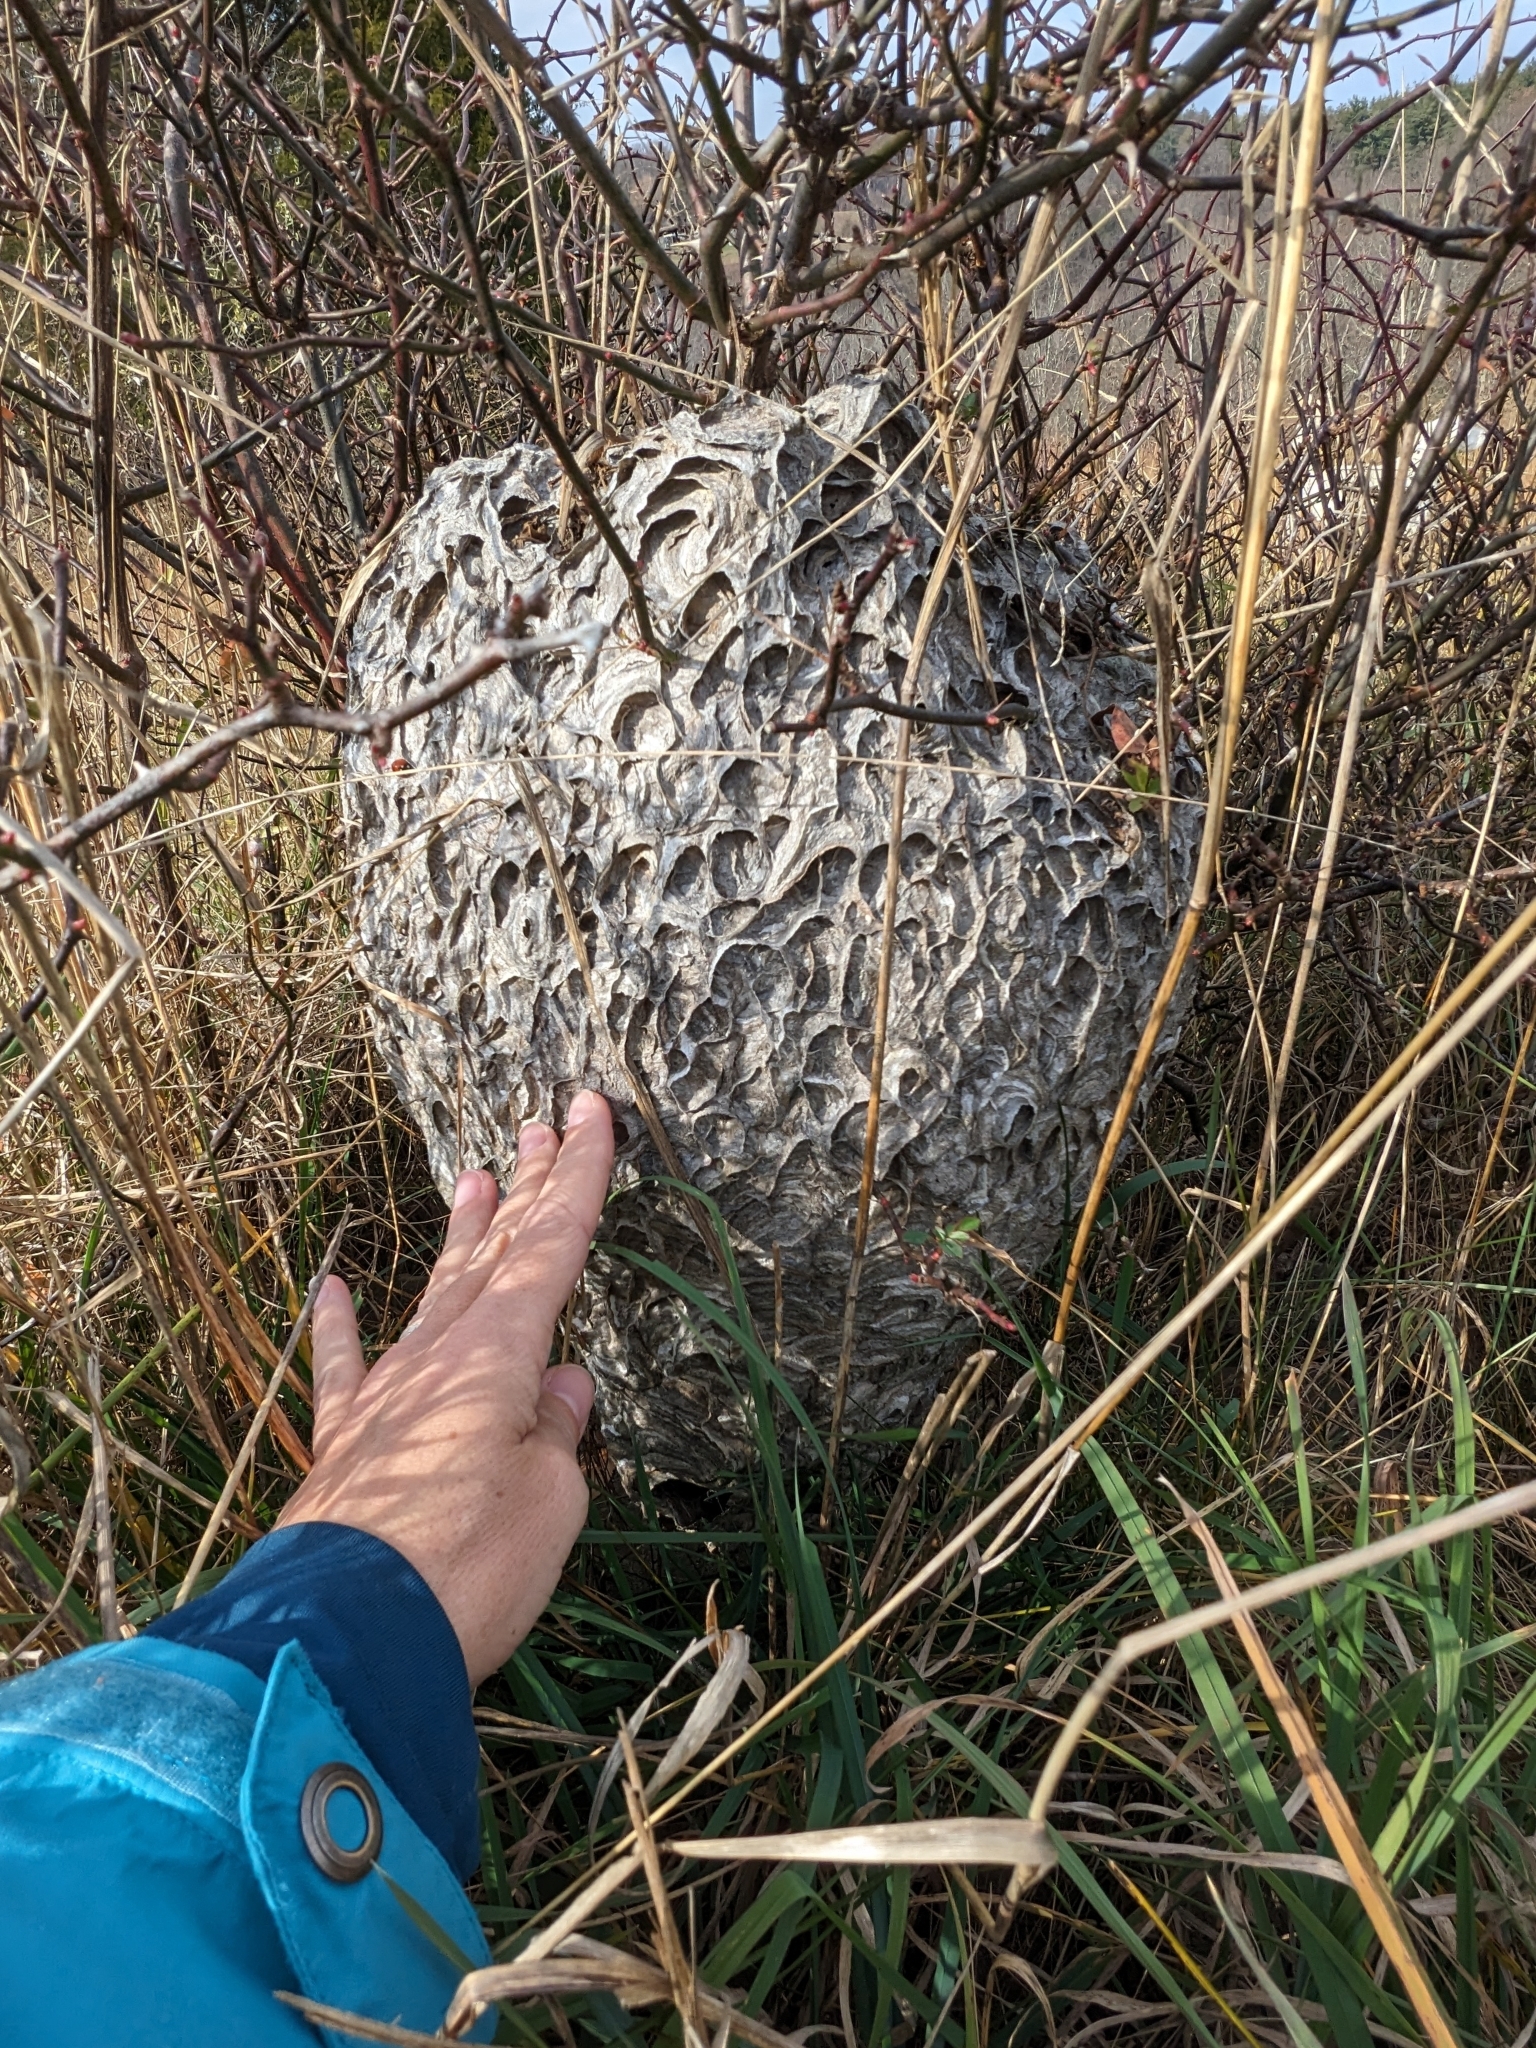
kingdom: Animalia
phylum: Arthropoda
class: Insecta
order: Hymenoptera
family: Vespidae
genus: Dolichovespula
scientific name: Dolichovespula maculata
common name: Bald-faced hornet
